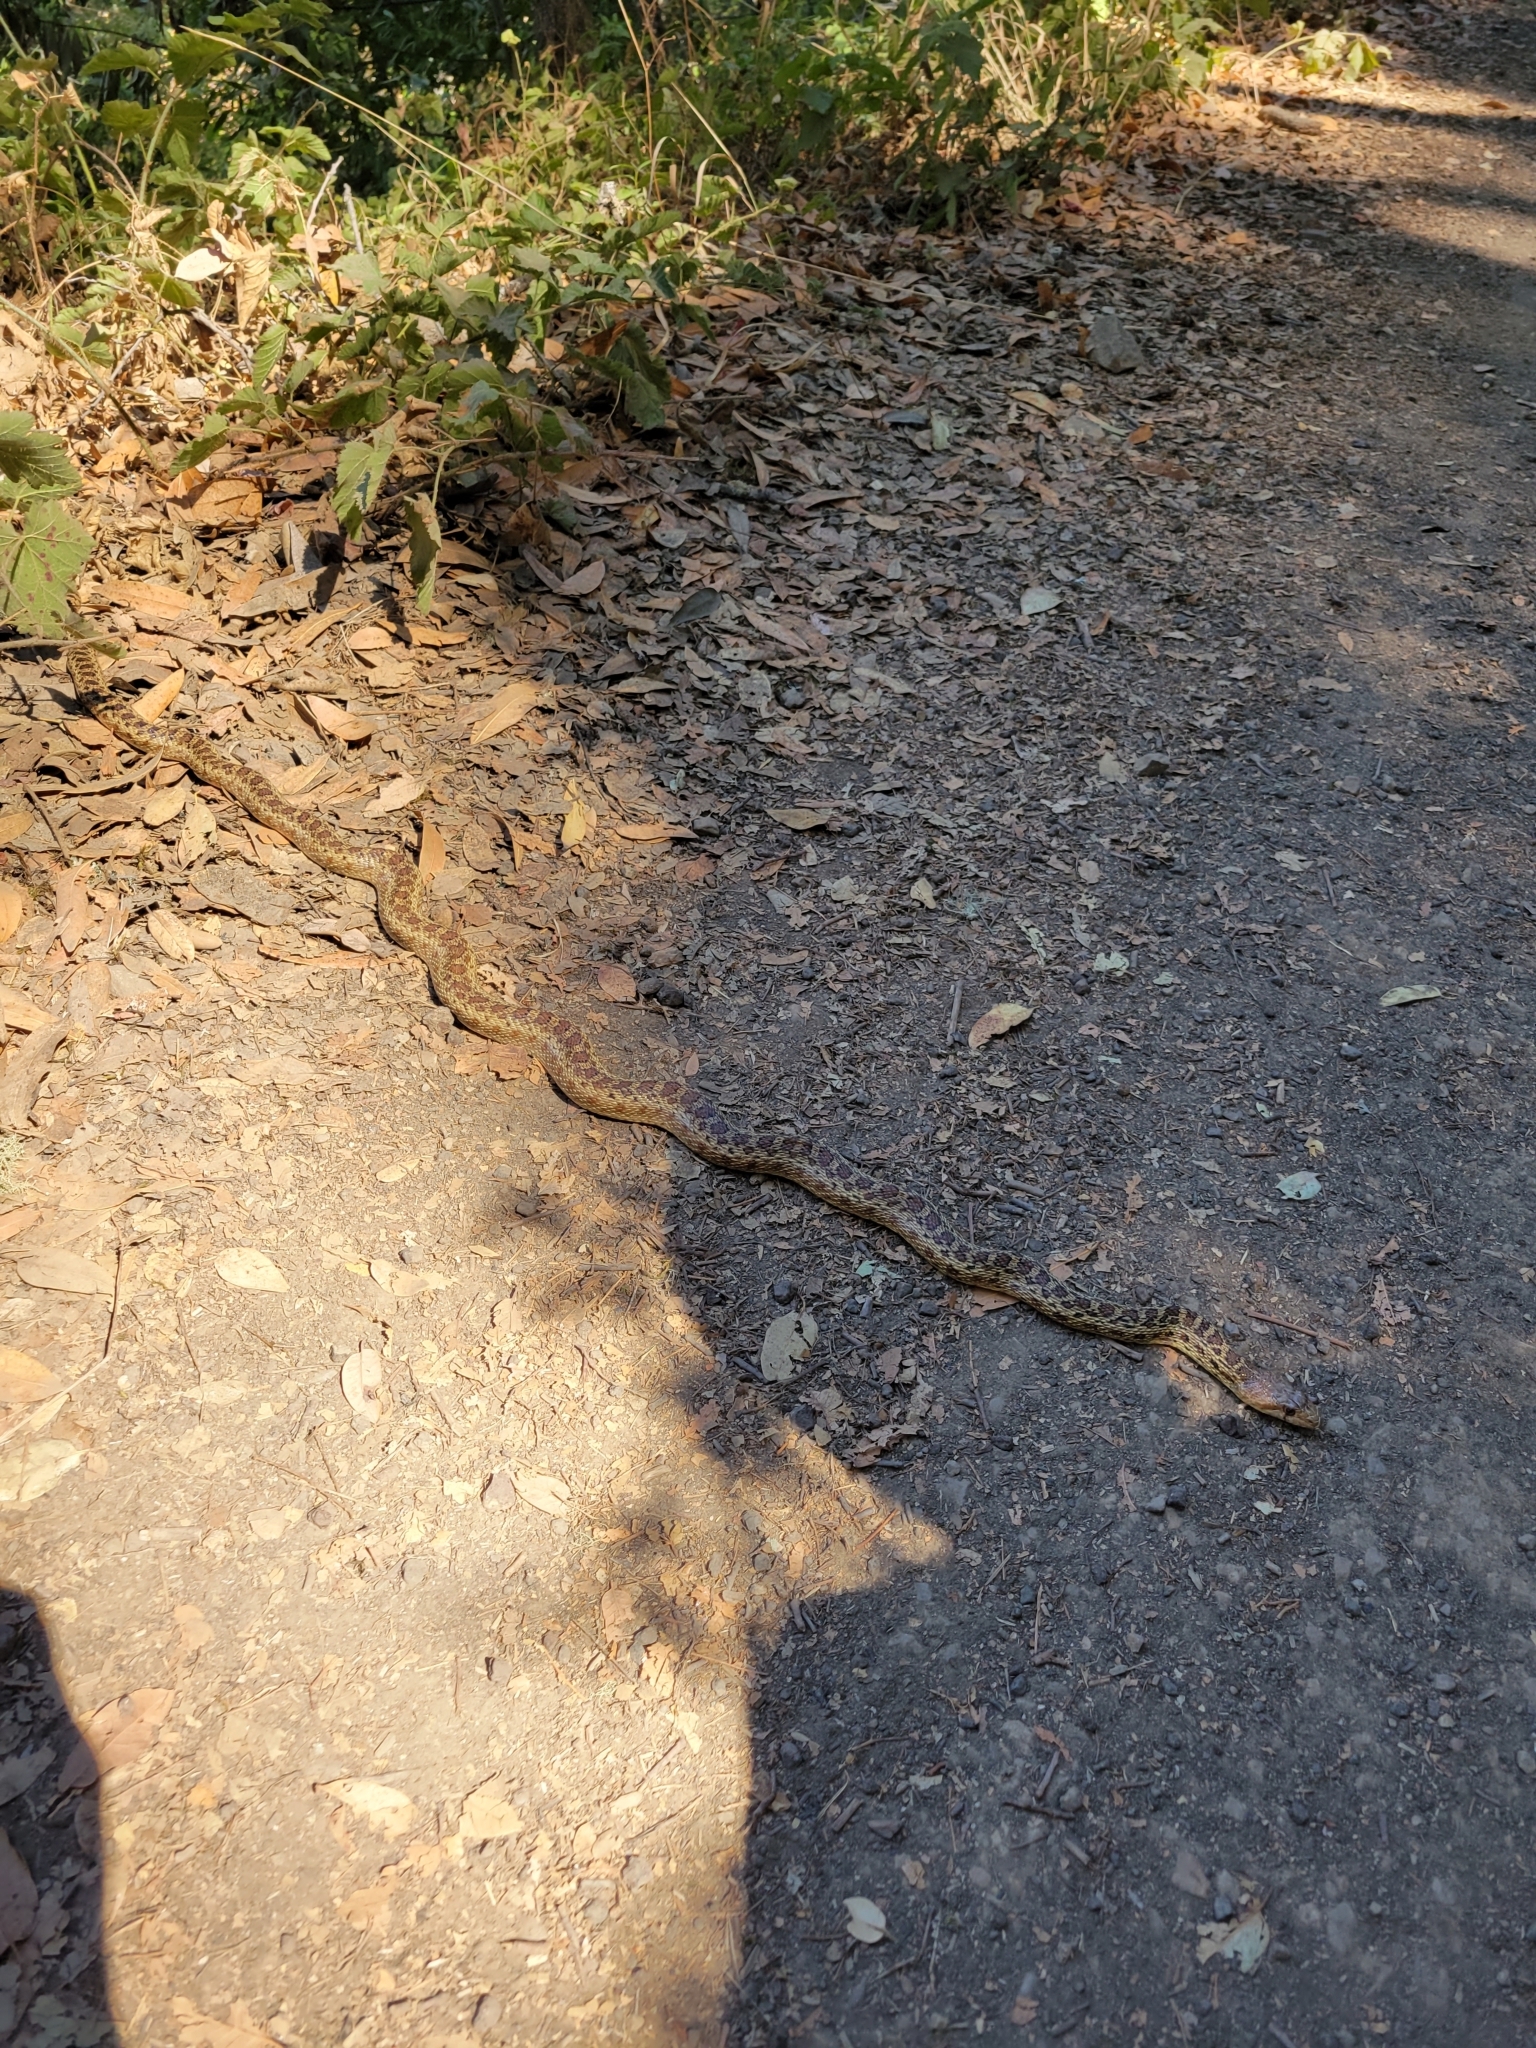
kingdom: Animalia
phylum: Chordata
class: Squamata
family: Colubridae
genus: Pituophis
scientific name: Pituophis catenifer
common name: Gopher snake
